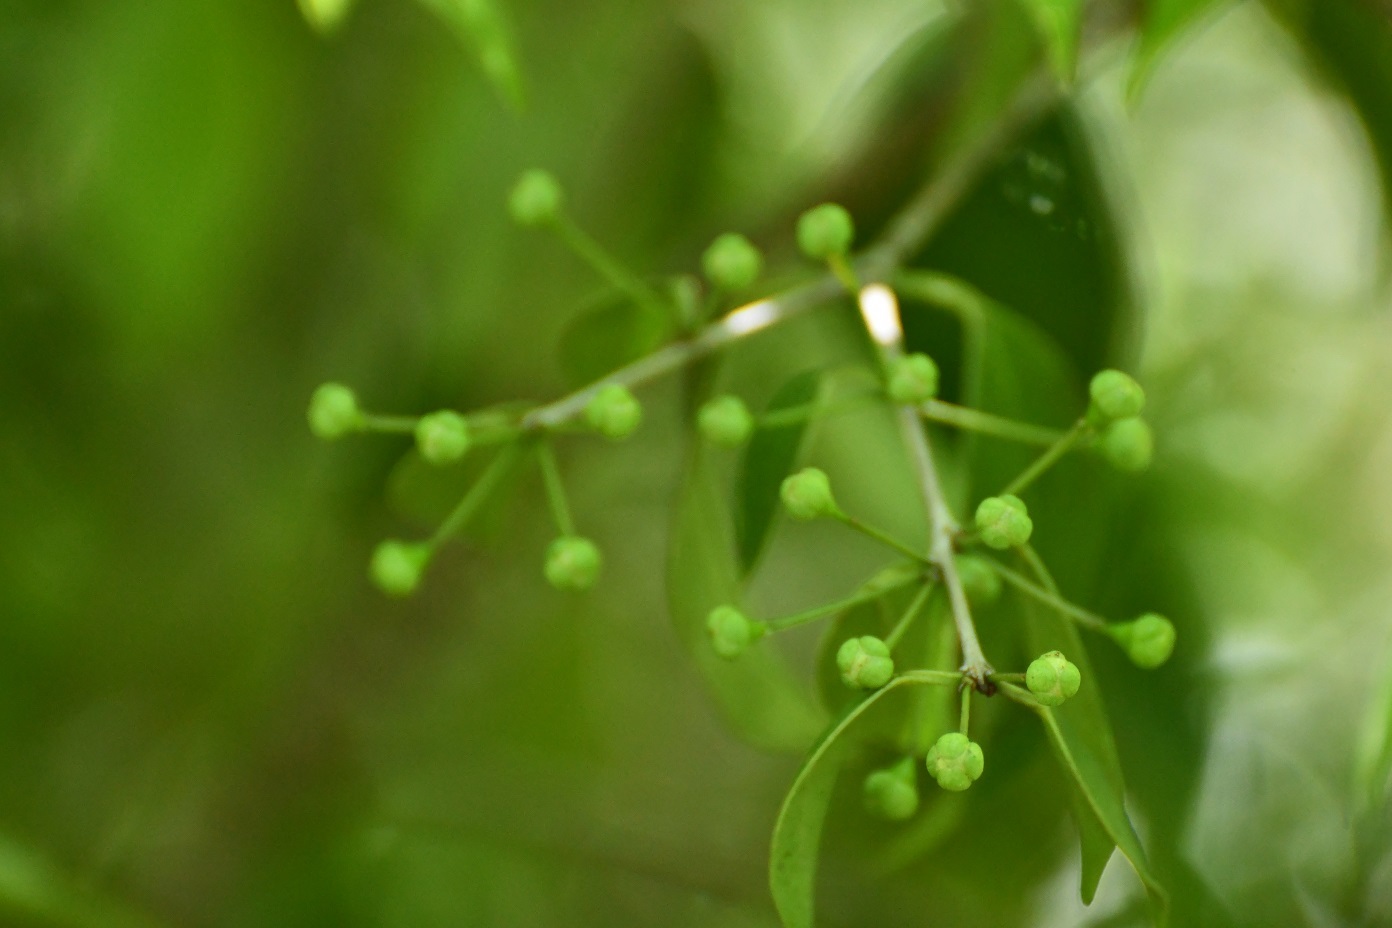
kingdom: Plantae
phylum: Tracheophyta
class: Magnoliopsida
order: Myrtales
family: Myrtaceae
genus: Myrcianthes
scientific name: Myrcianthes fragrans
